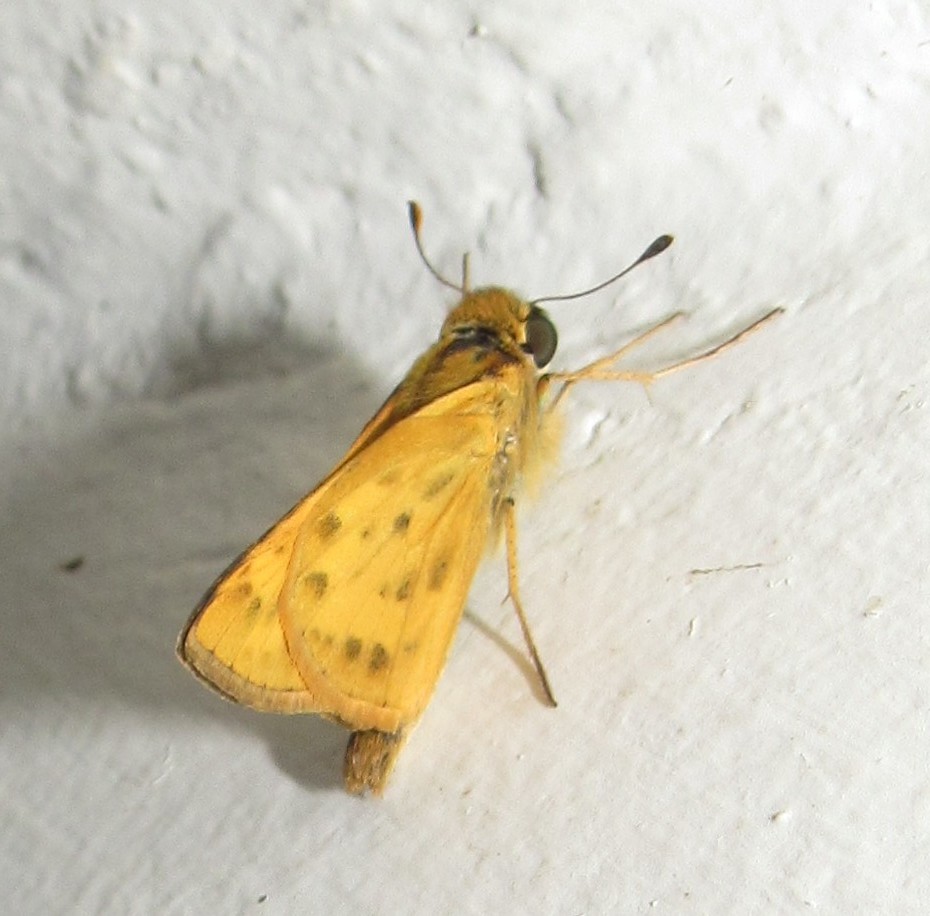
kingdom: Animalia
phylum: Arthropoda
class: Insecta
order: Lepidoptera
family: Hesperiidae
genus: Hylephila
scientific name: Hylephila phyleus
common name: Fiery skipper
